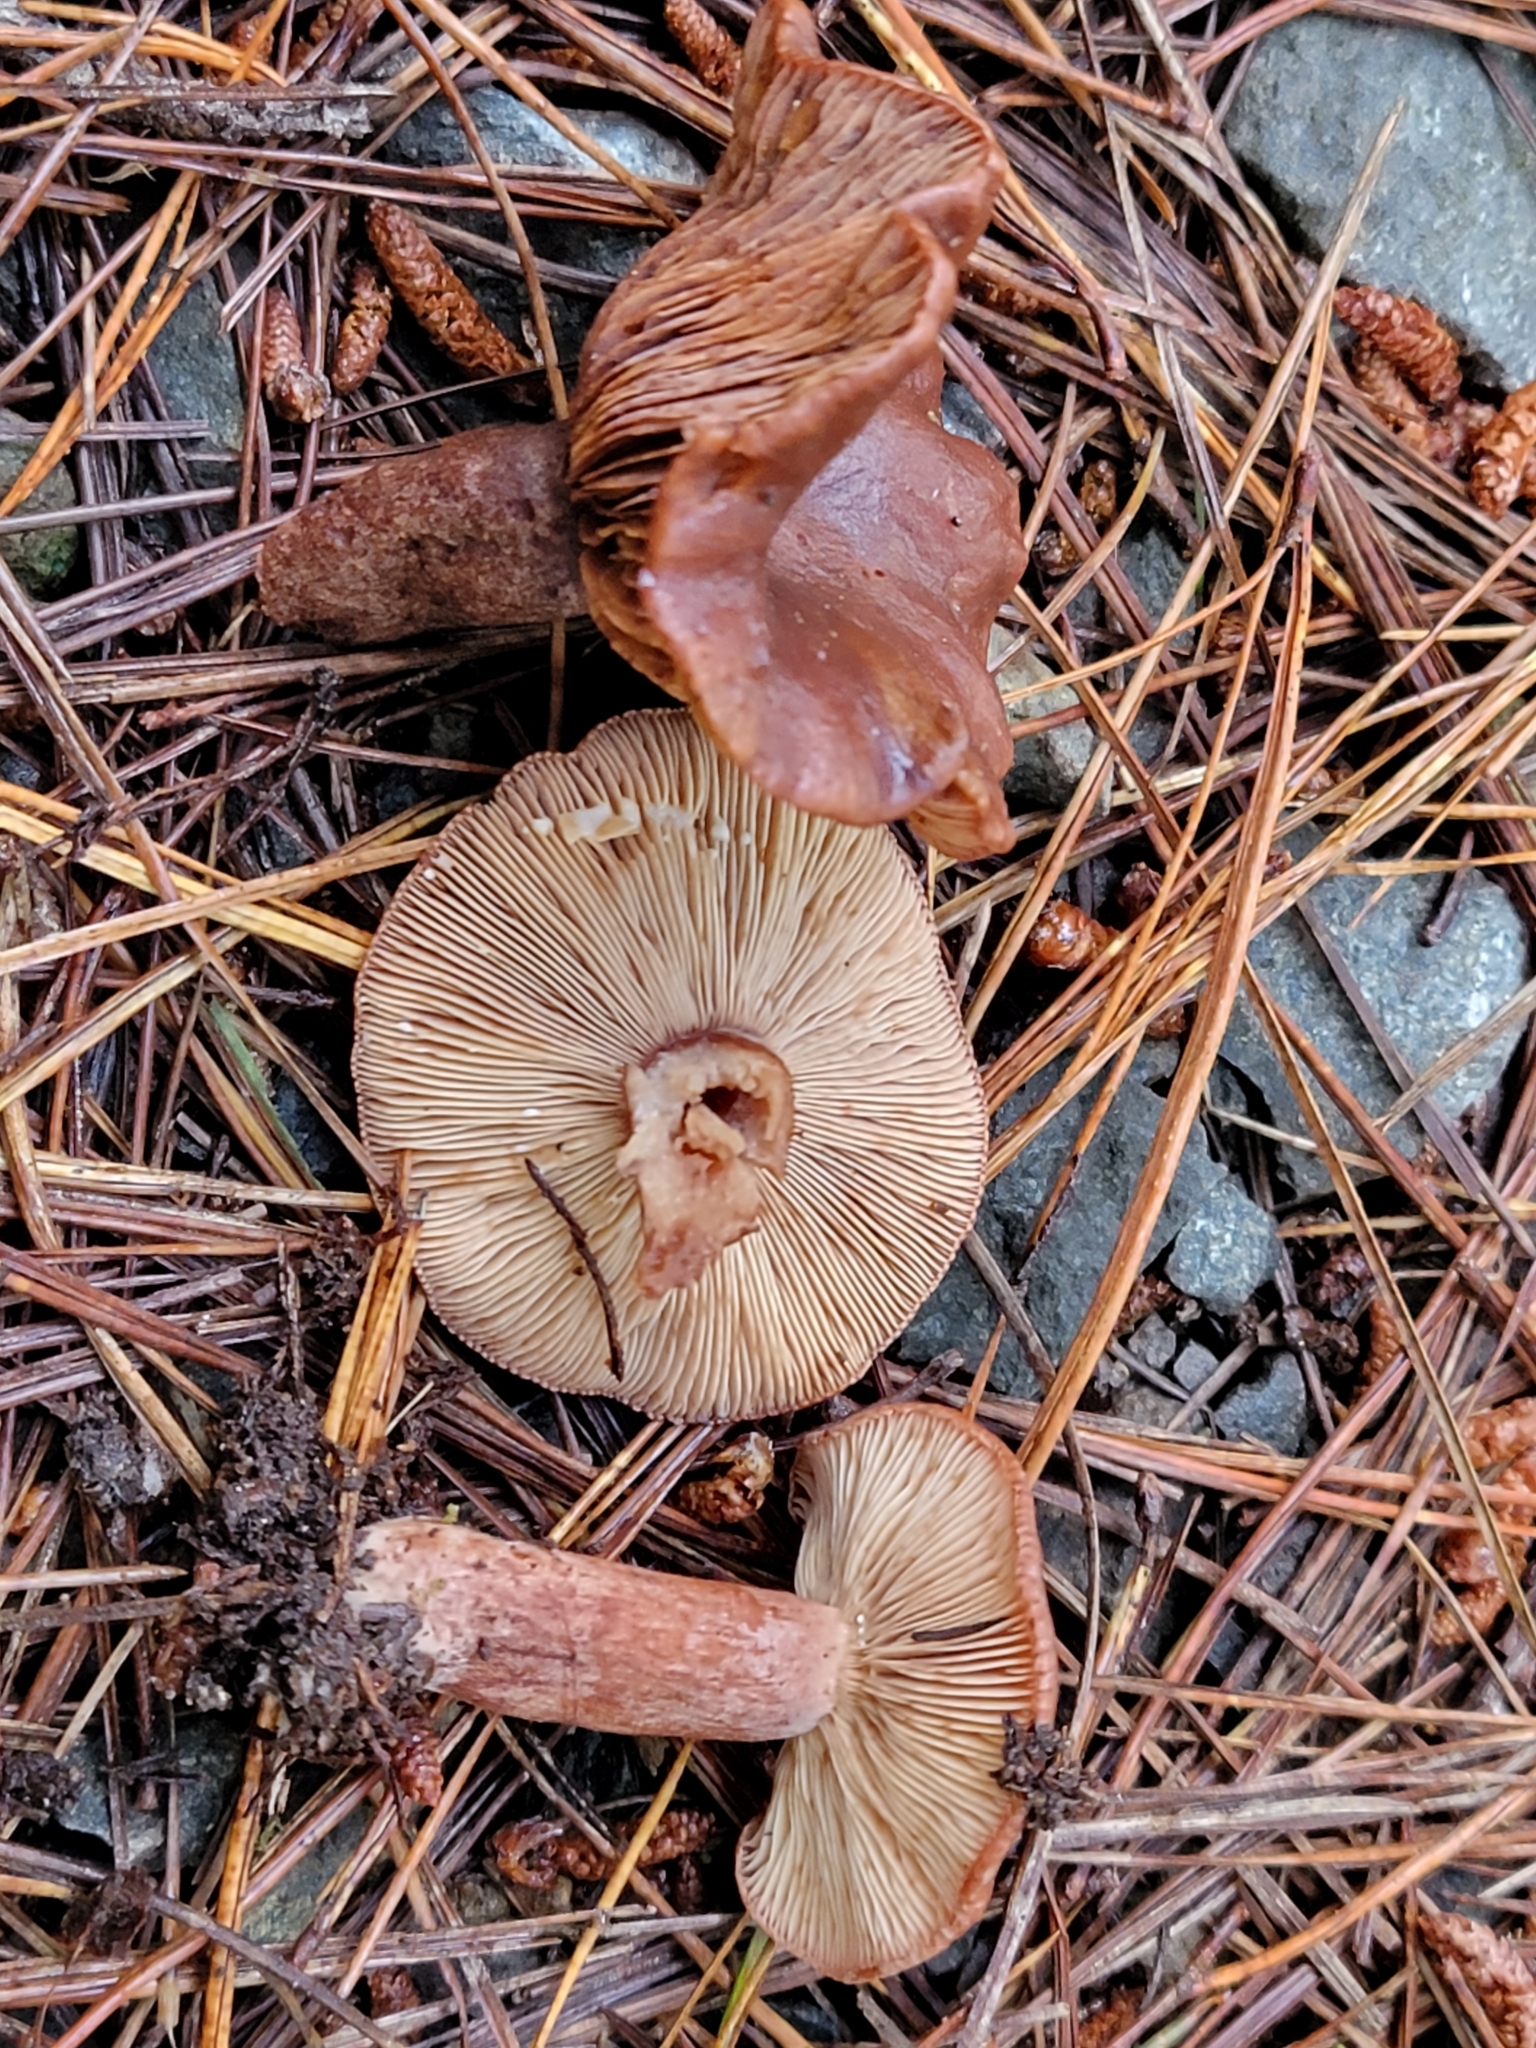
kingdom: Fungi
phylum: Basidiomycota
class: Agaricomycetes
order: Russulales
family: Russulaceae
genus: Lactarius
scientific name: Lactarius rufus
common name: Rufous milk-cap
